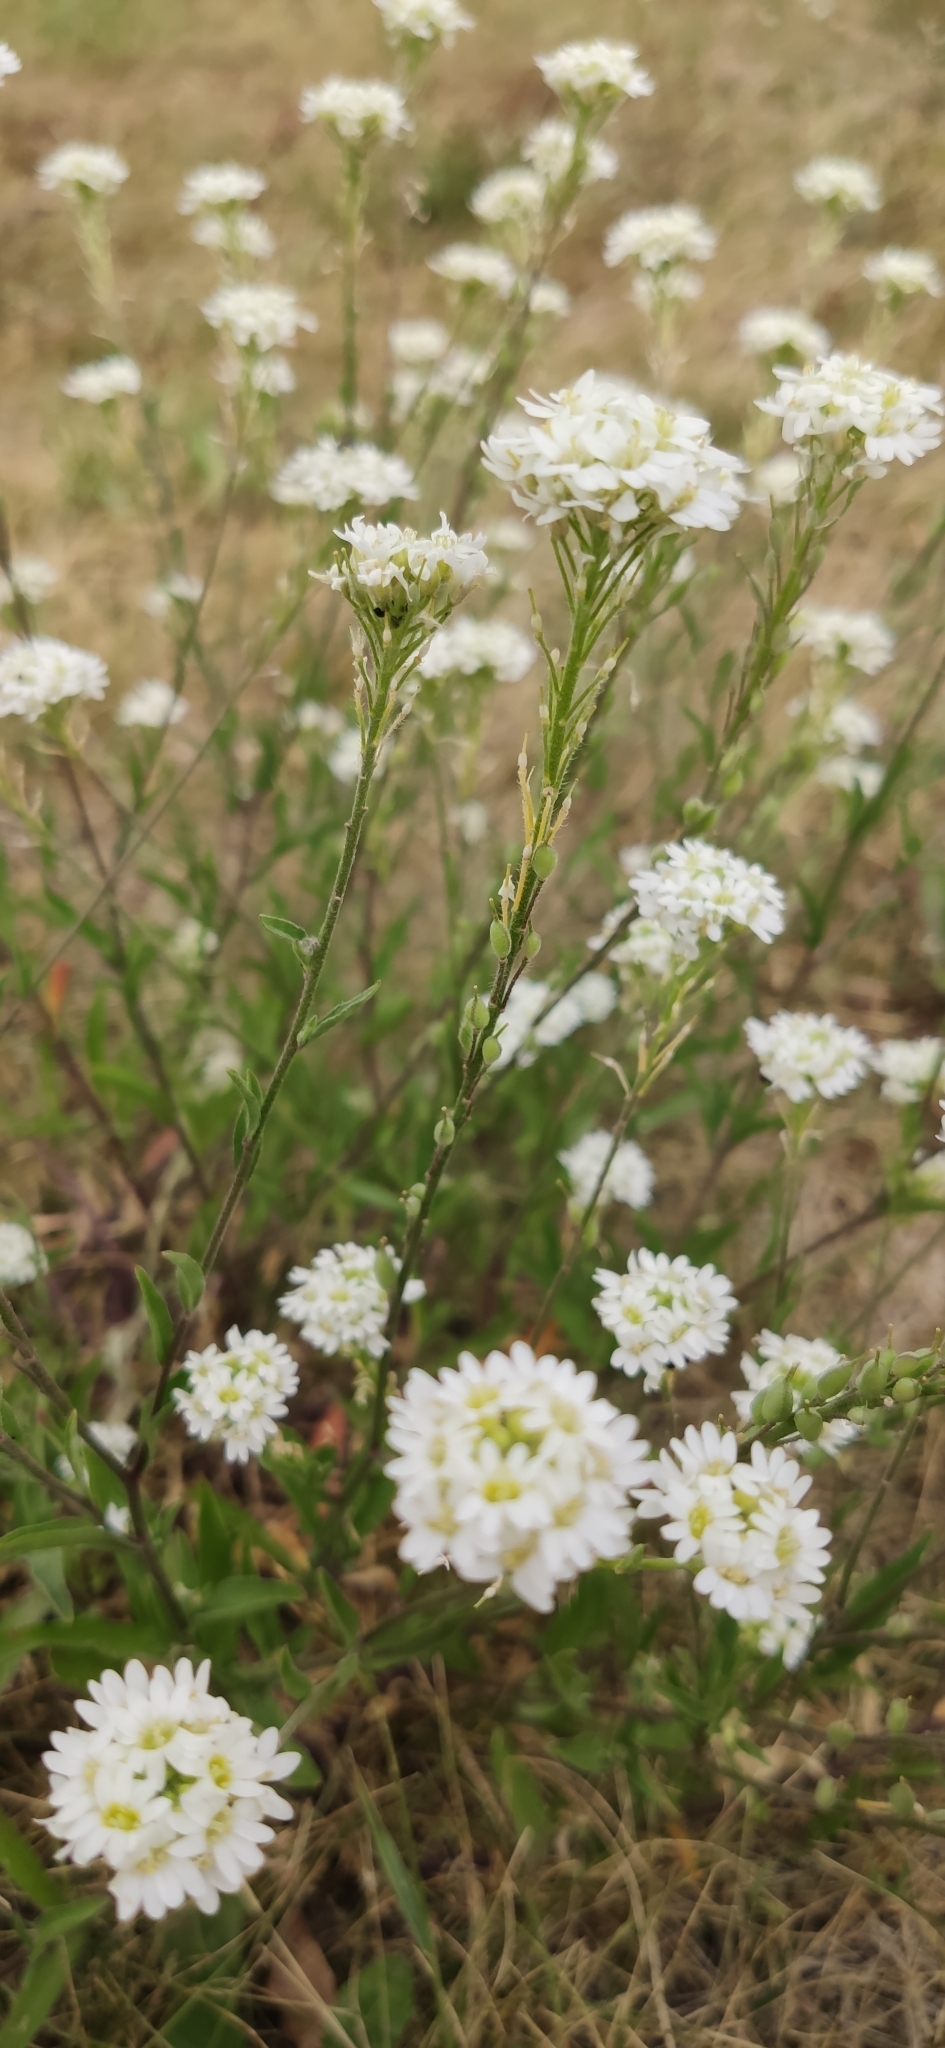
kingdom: Plantae
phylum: Tracheophyta
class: Magnoliopsida
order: Brassicales
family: Brassicaceae
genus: Berteroa
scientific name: Berteroa incana
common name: Hoary alison
